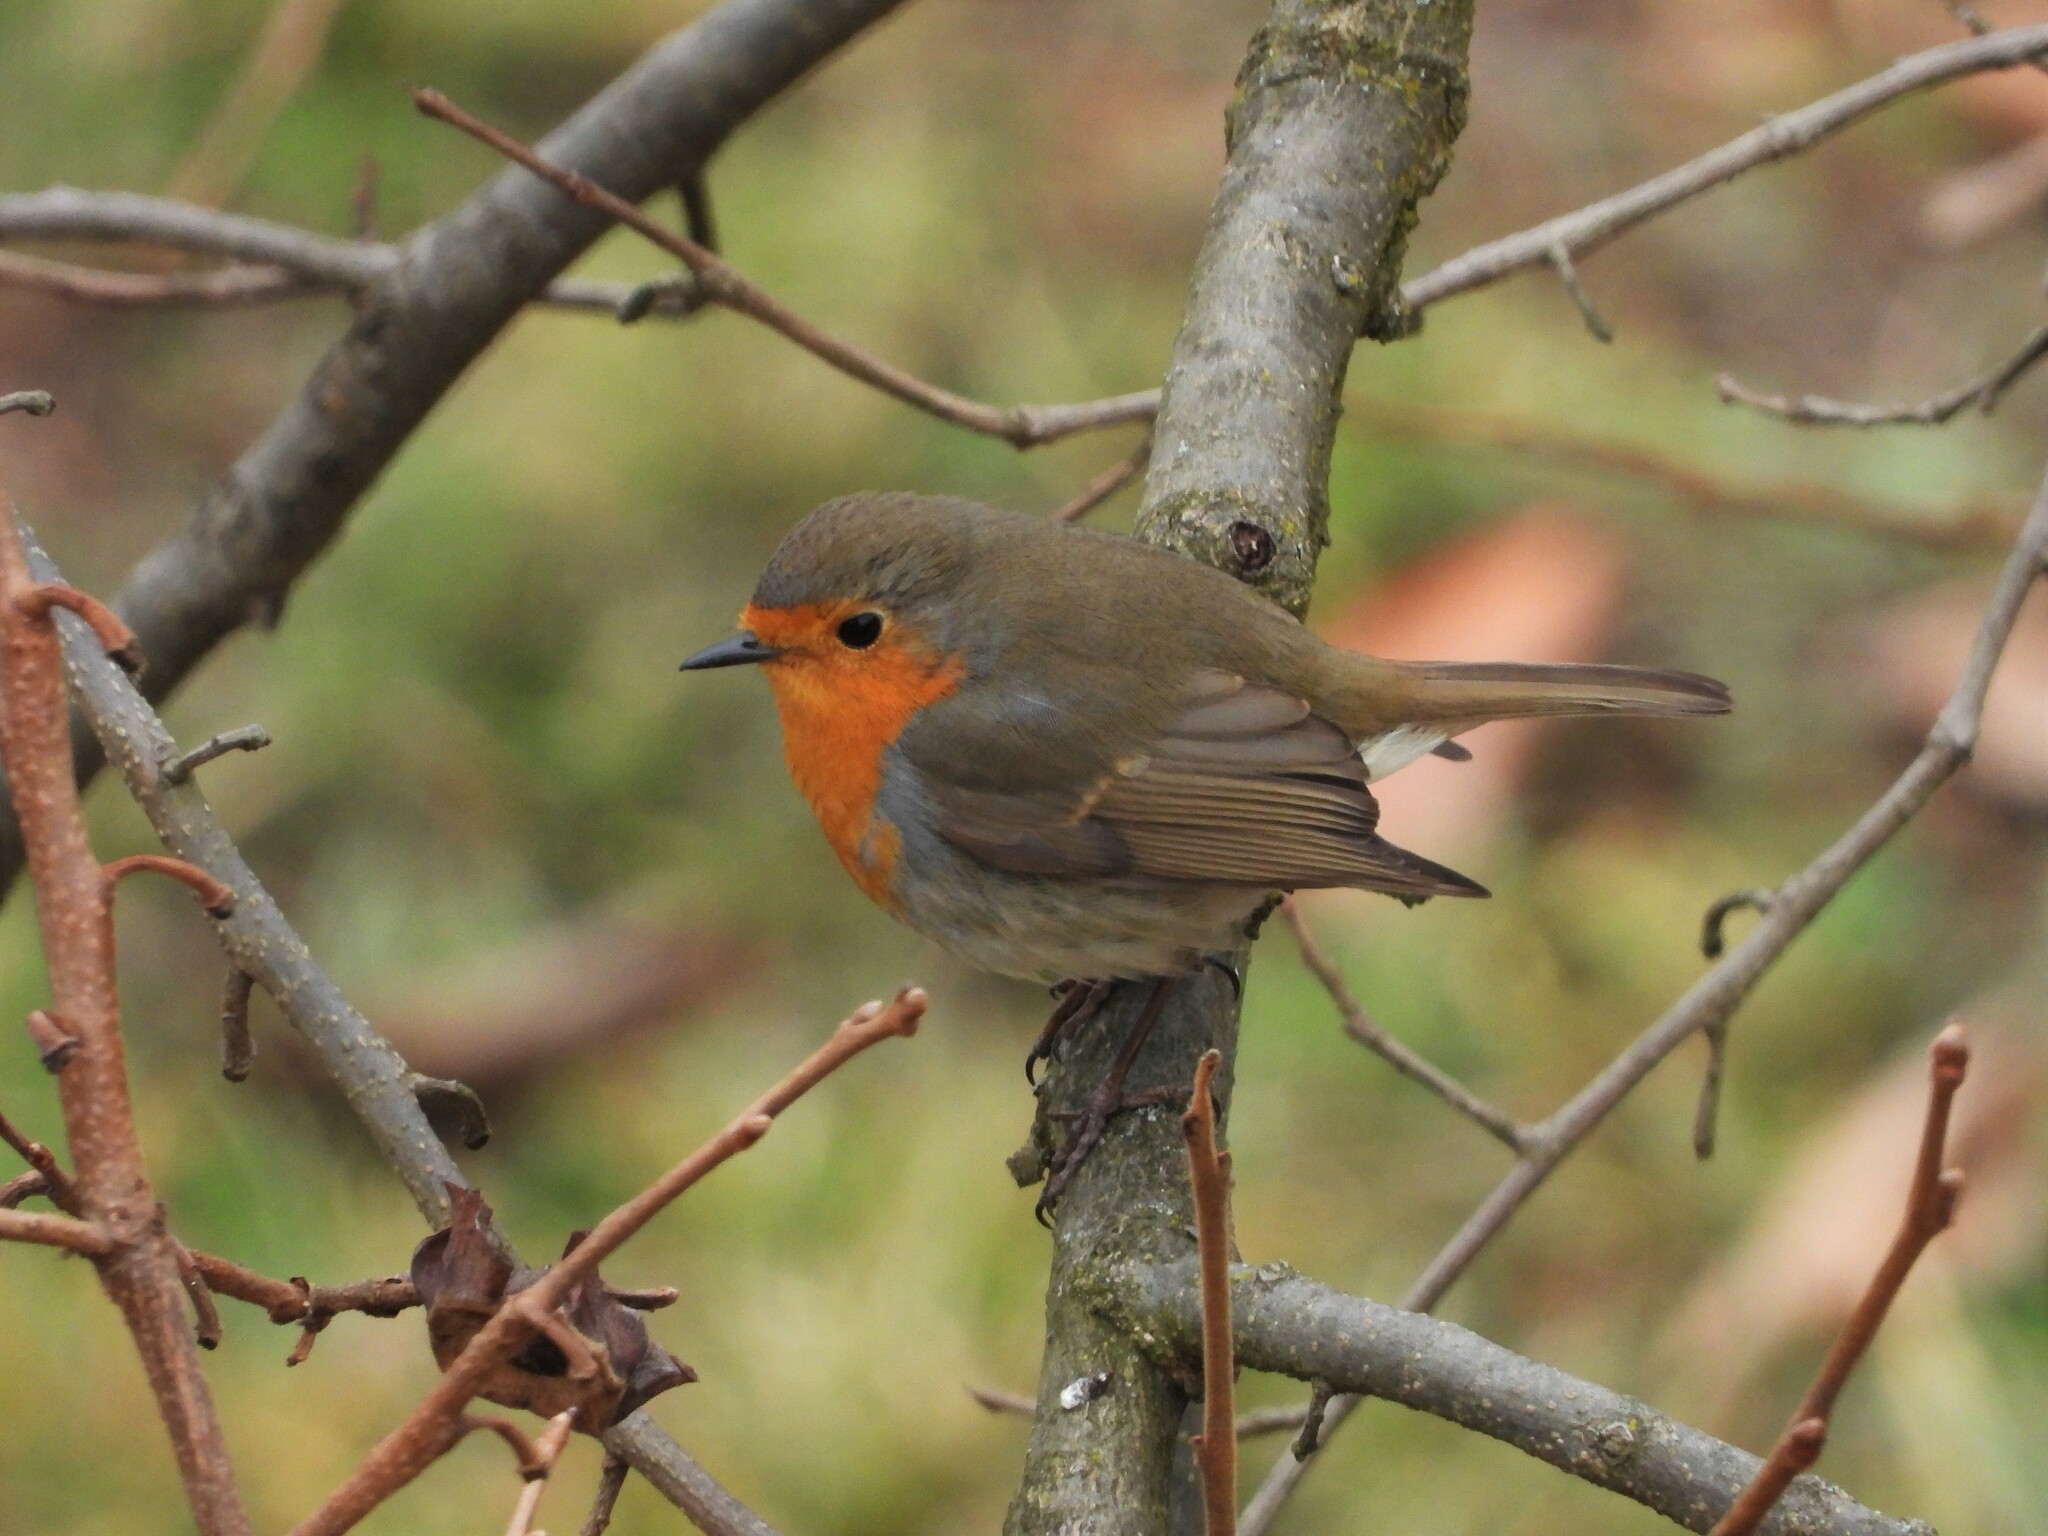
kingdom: Animalia
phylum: Chordata
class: Aves
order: Passeriformes
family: Muscicapidae
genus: Erithacus
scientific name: Erithacus rubecula
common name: European robin
